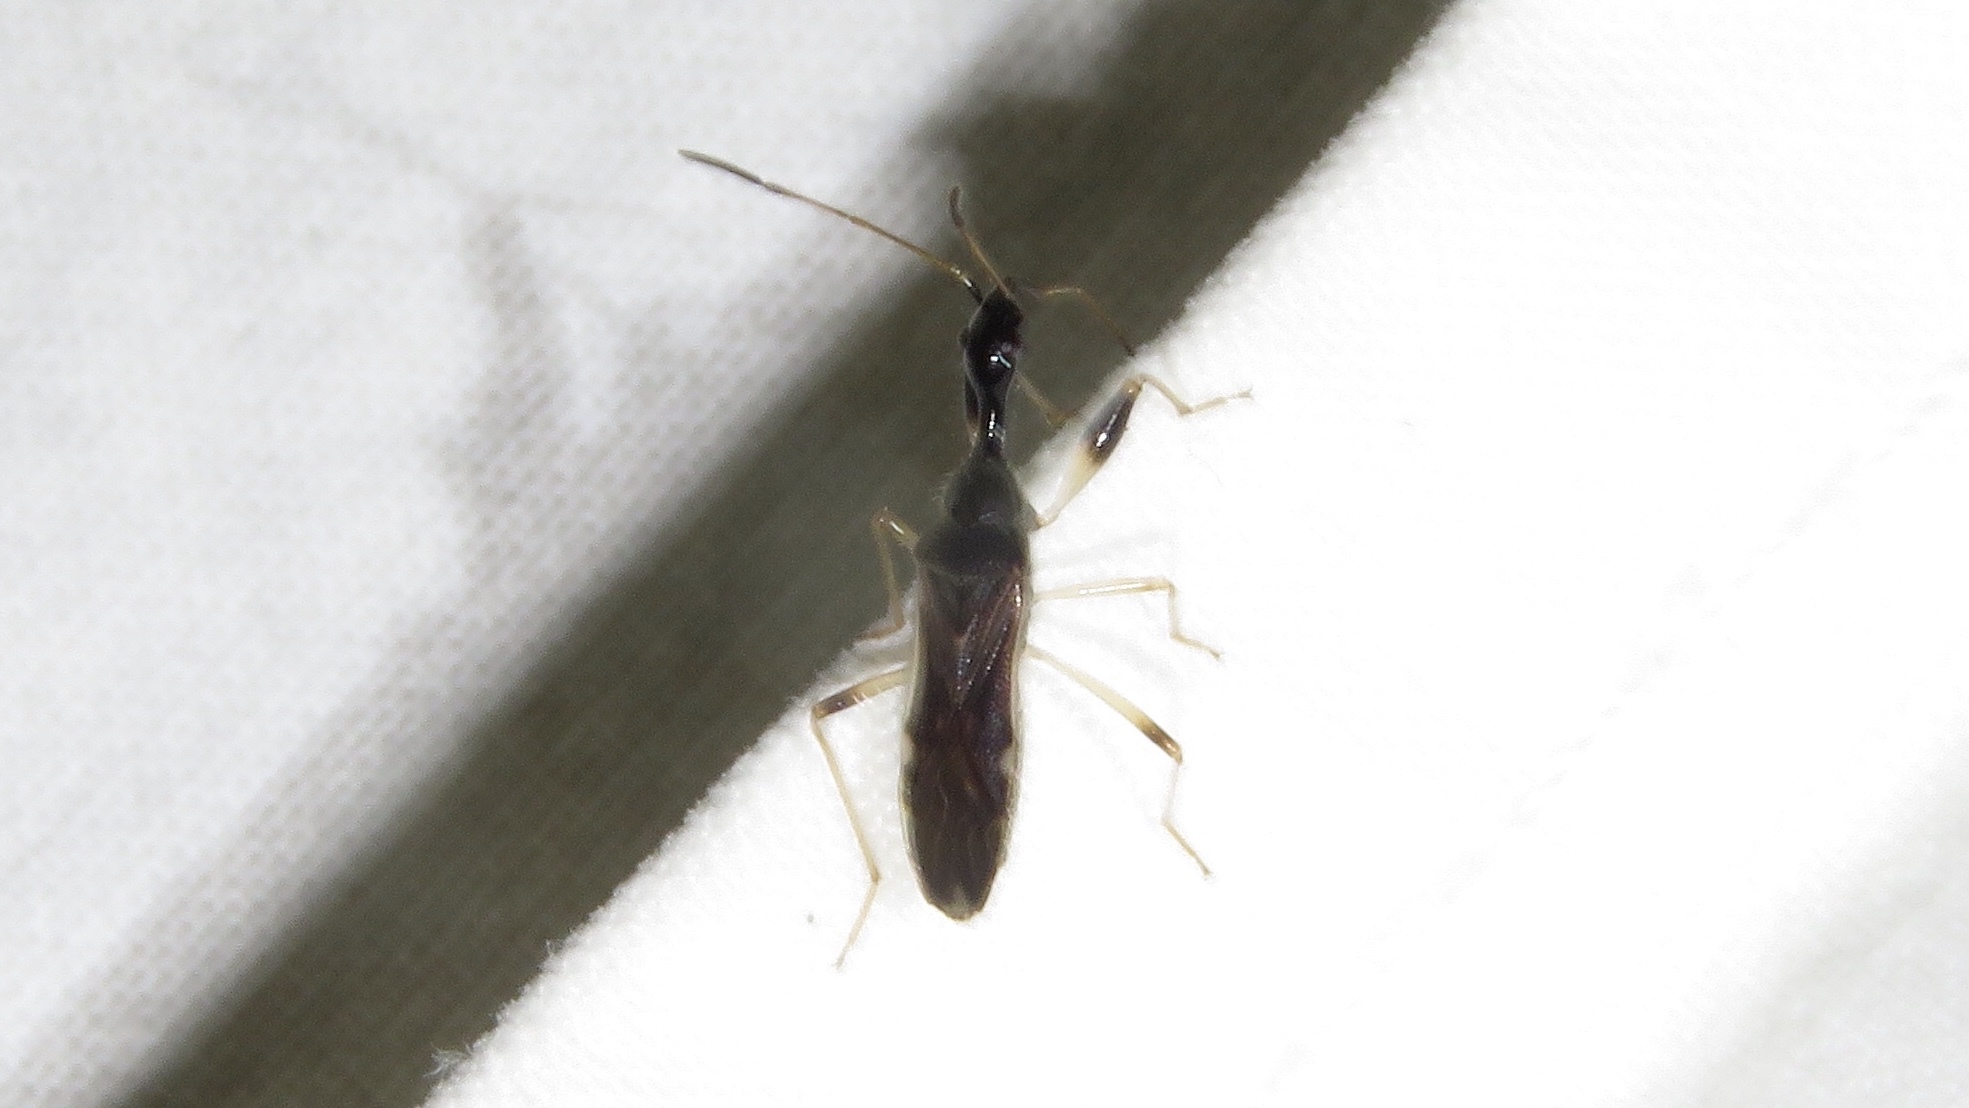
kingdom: Animalia
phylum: Arthropoda
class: Insecta
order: Hemiptera
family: Rhyparochromidae
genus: Myodocha
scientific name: Myodocha serripes
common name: Long-necked seed bug
